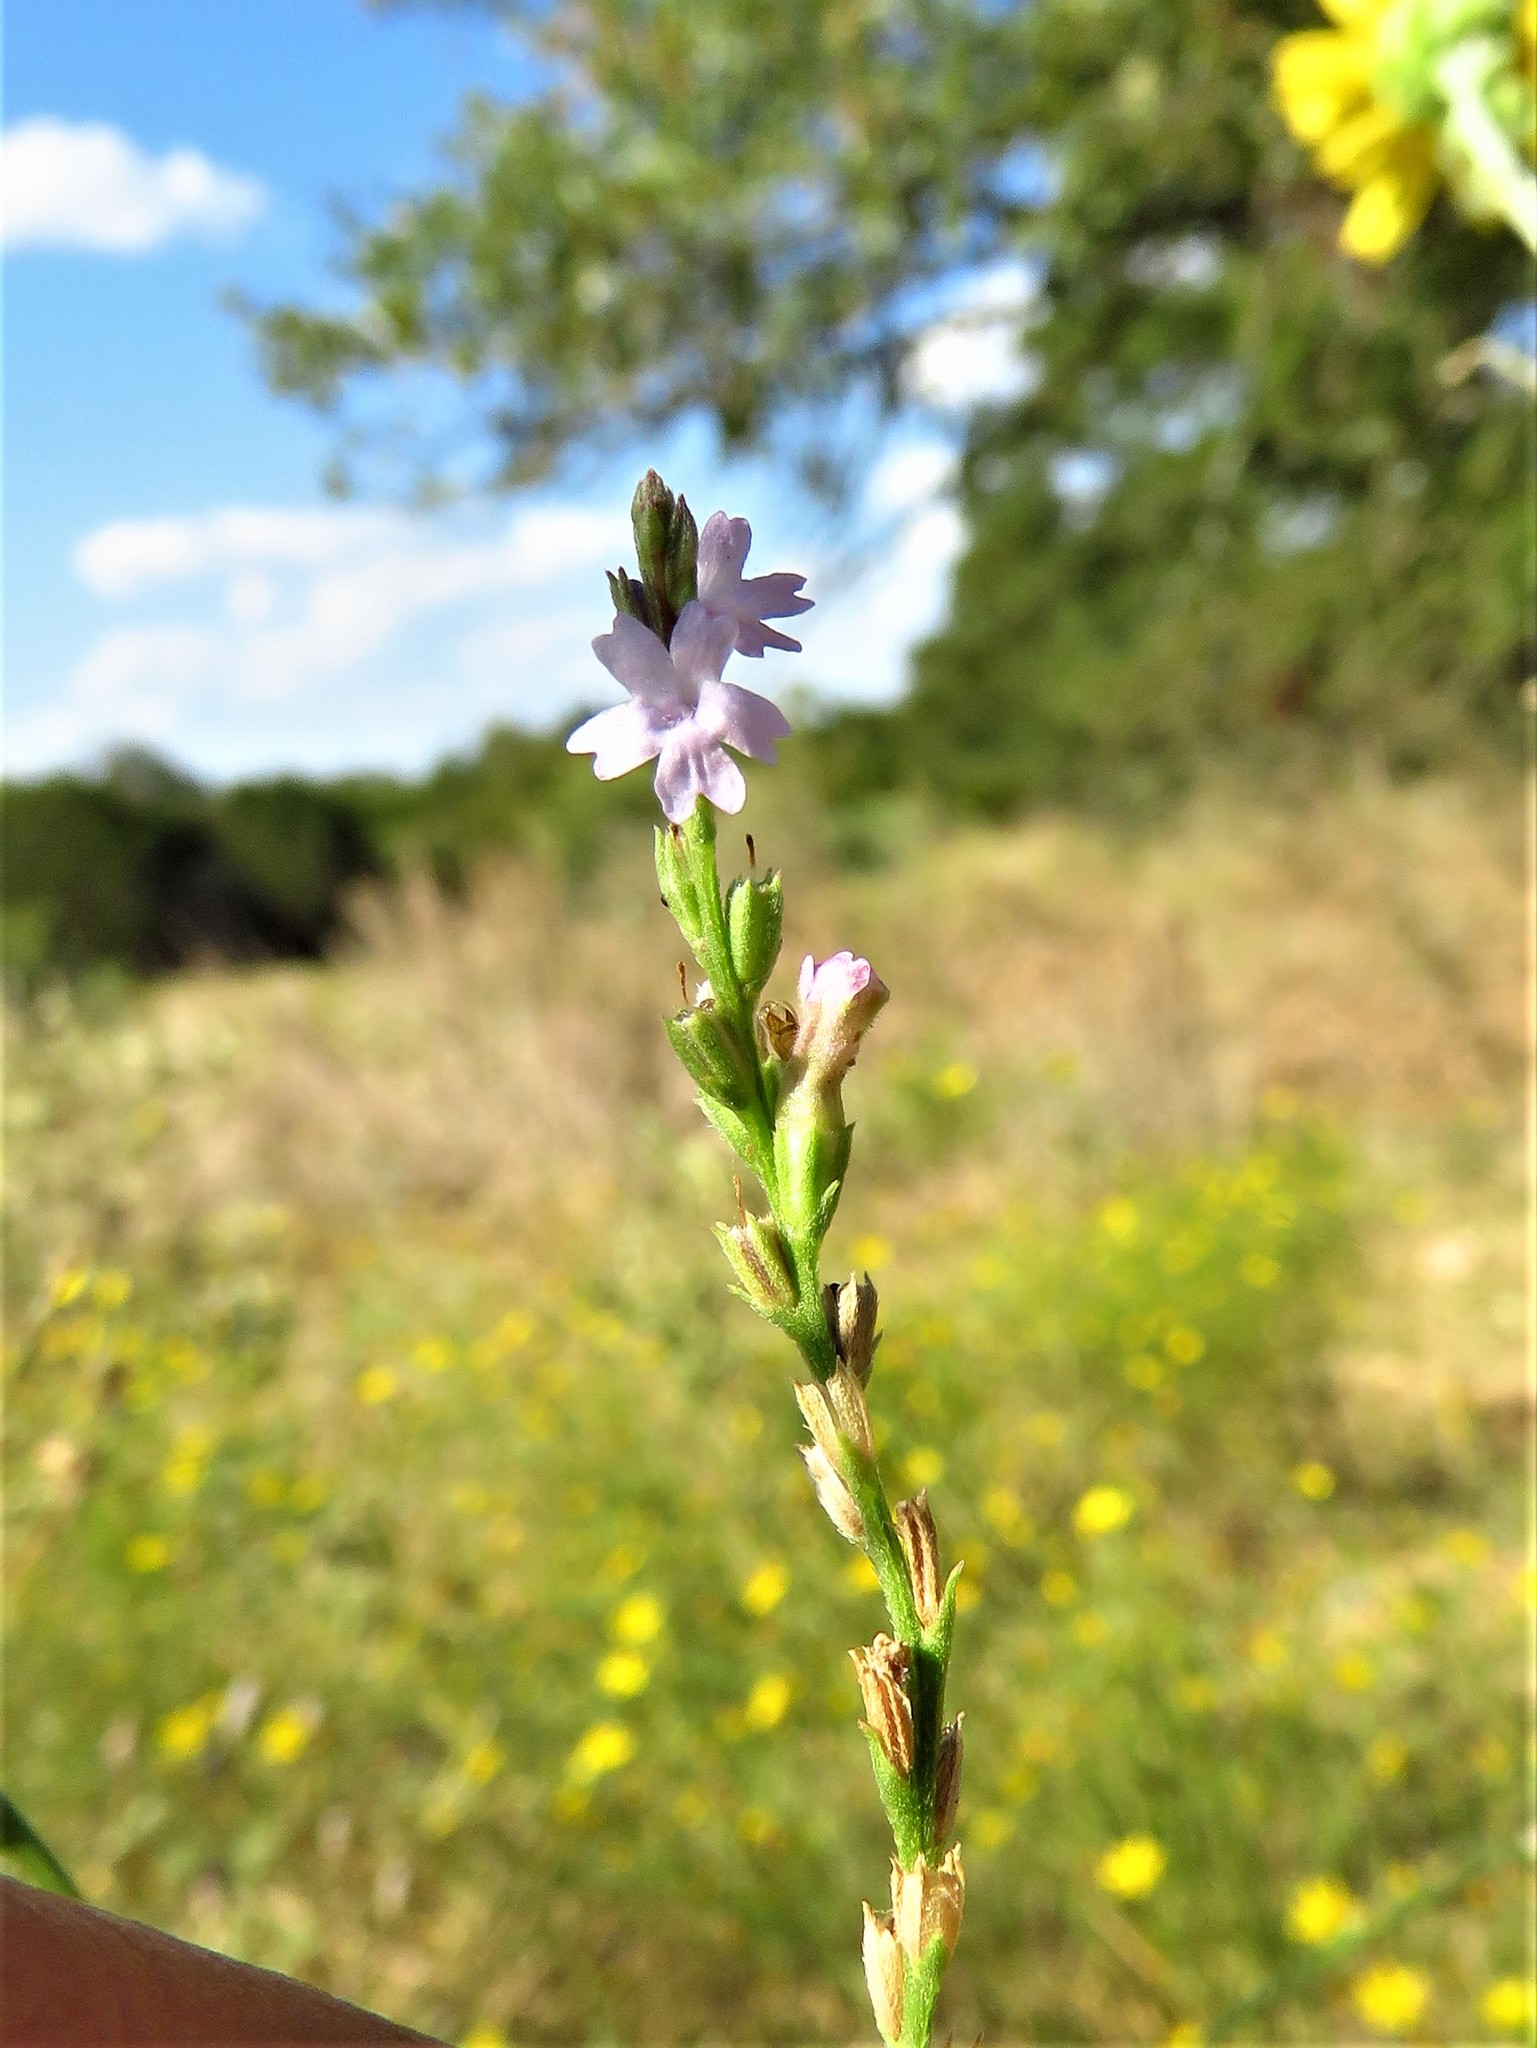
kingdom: Plantae
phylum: Tracheophyta
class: Magnoliopsida
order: Lamiales
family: Verbenaceae
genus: Verbena
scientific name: Verbena halei
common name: Texas vervain
